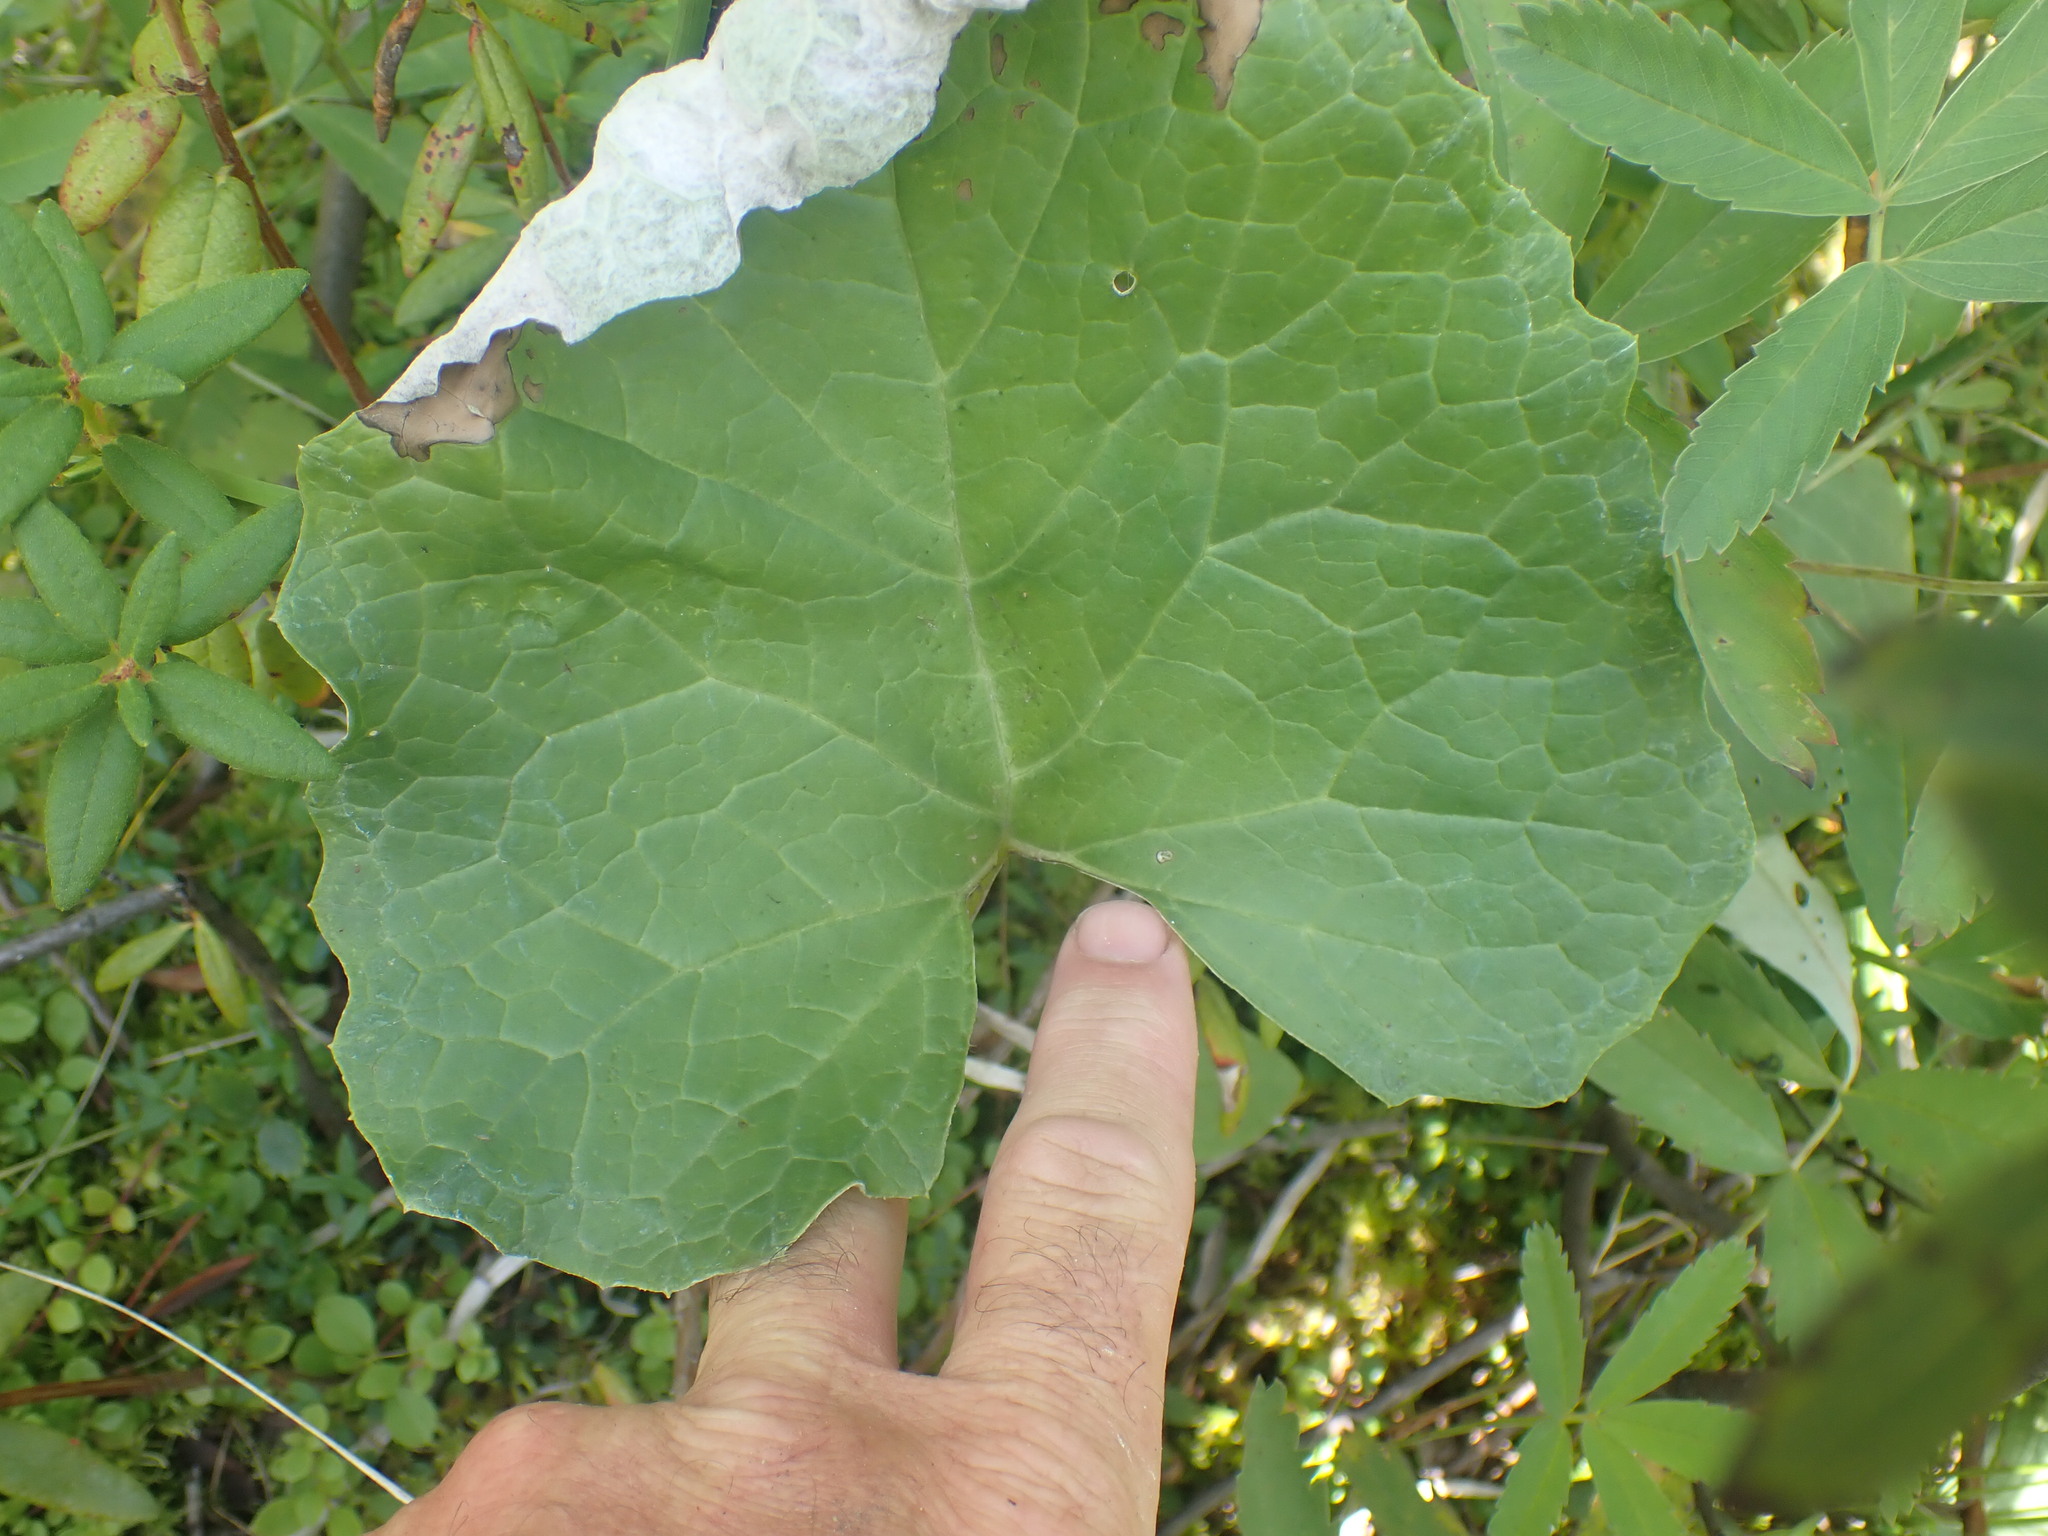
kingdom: Plantae
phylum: Tracheophyta
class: Magnoliopsida
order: Asterales
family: Asteraceae
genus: Petasites
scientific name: Petasites frigidus
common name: Arctic butterbur
